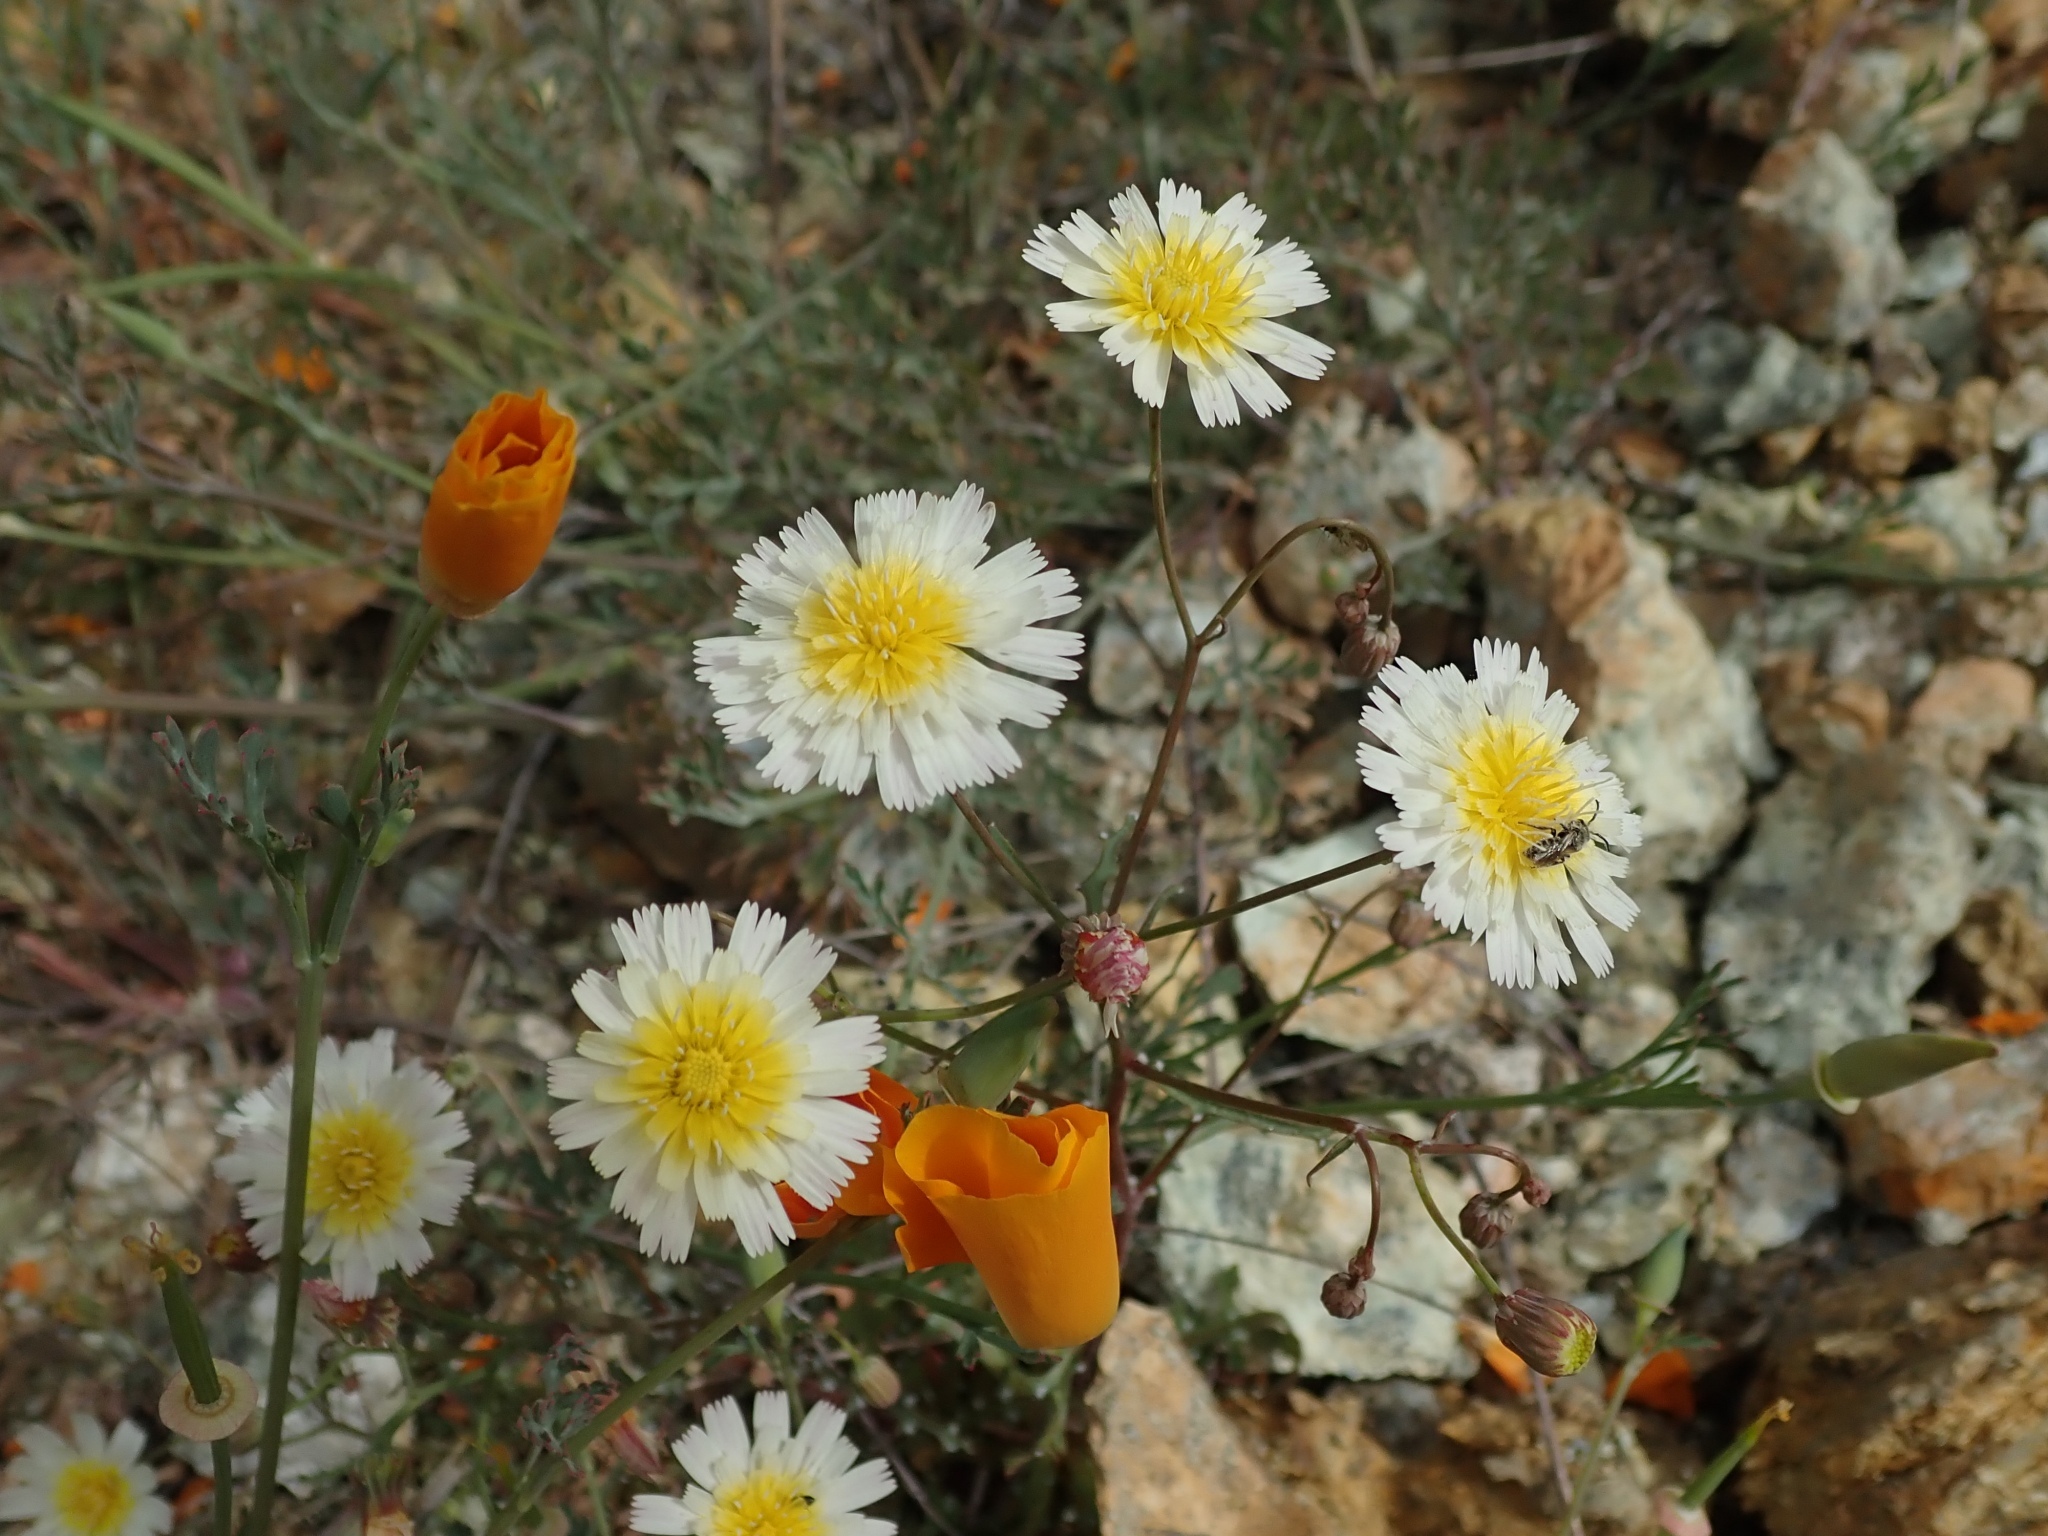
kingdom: Plantae
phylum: Tracheophyta
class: Magnoliopsida
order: Asterales
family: Asteraceae
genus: Malacothrix
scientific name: Malacothrix floccifera
